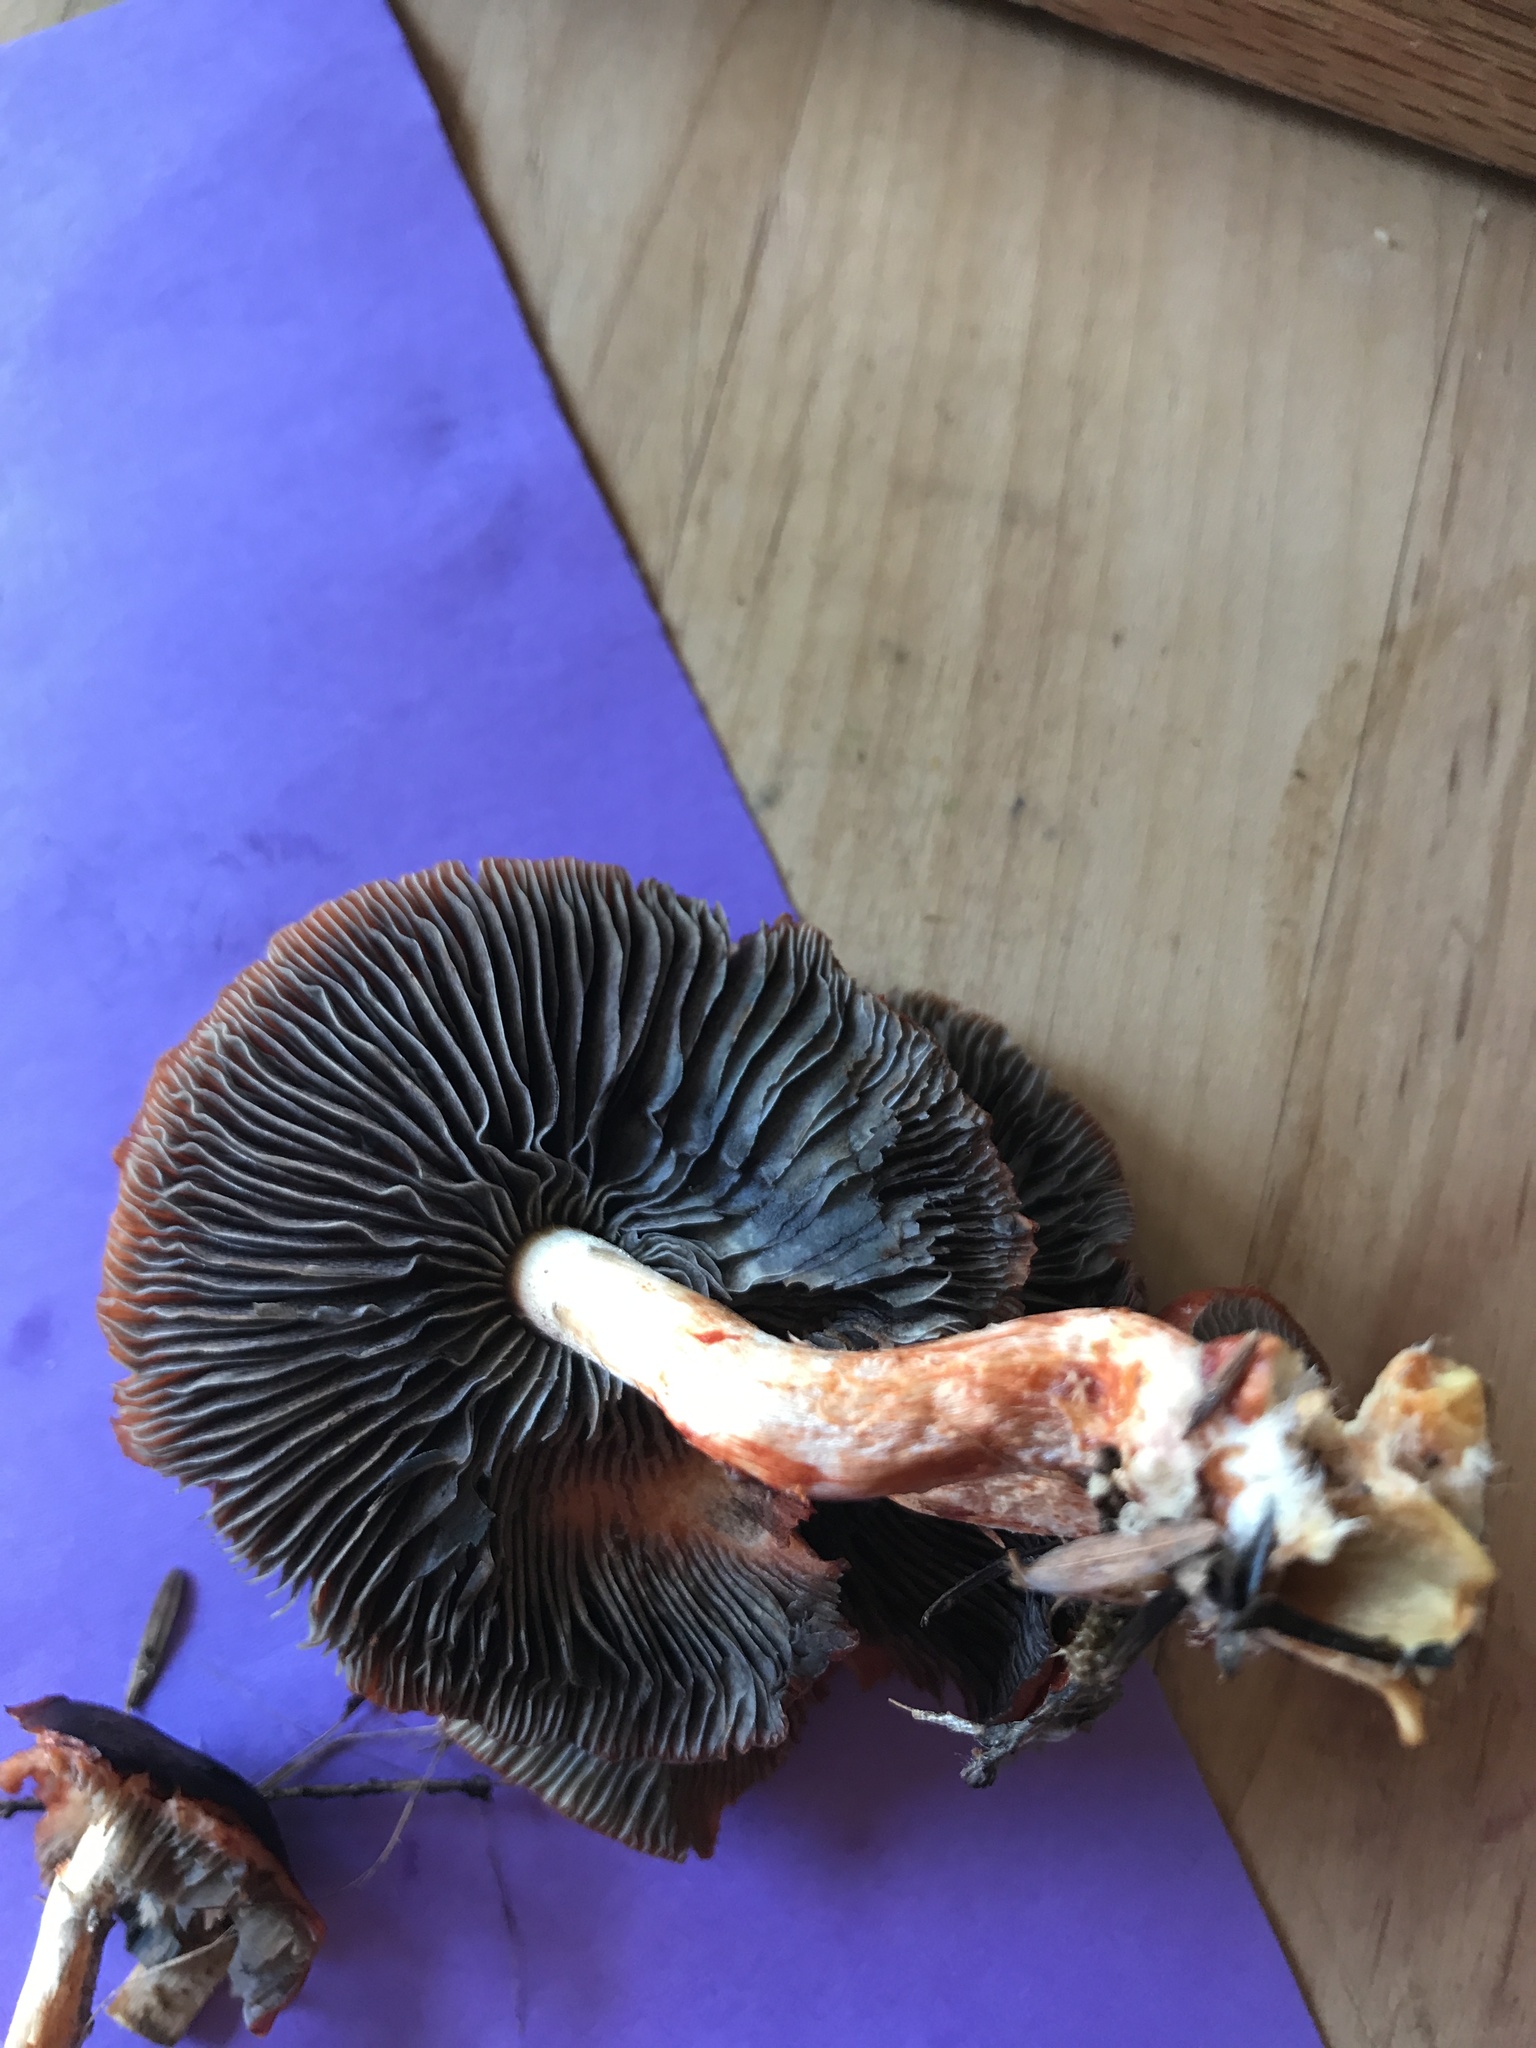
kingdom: Fungi
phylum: Basidiomycota
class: Agaricomycetes
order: Agaricales
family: Strophariaceae
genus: Leratiomyces
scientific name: Leratiomyces ceres
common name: Redlead roundhead
